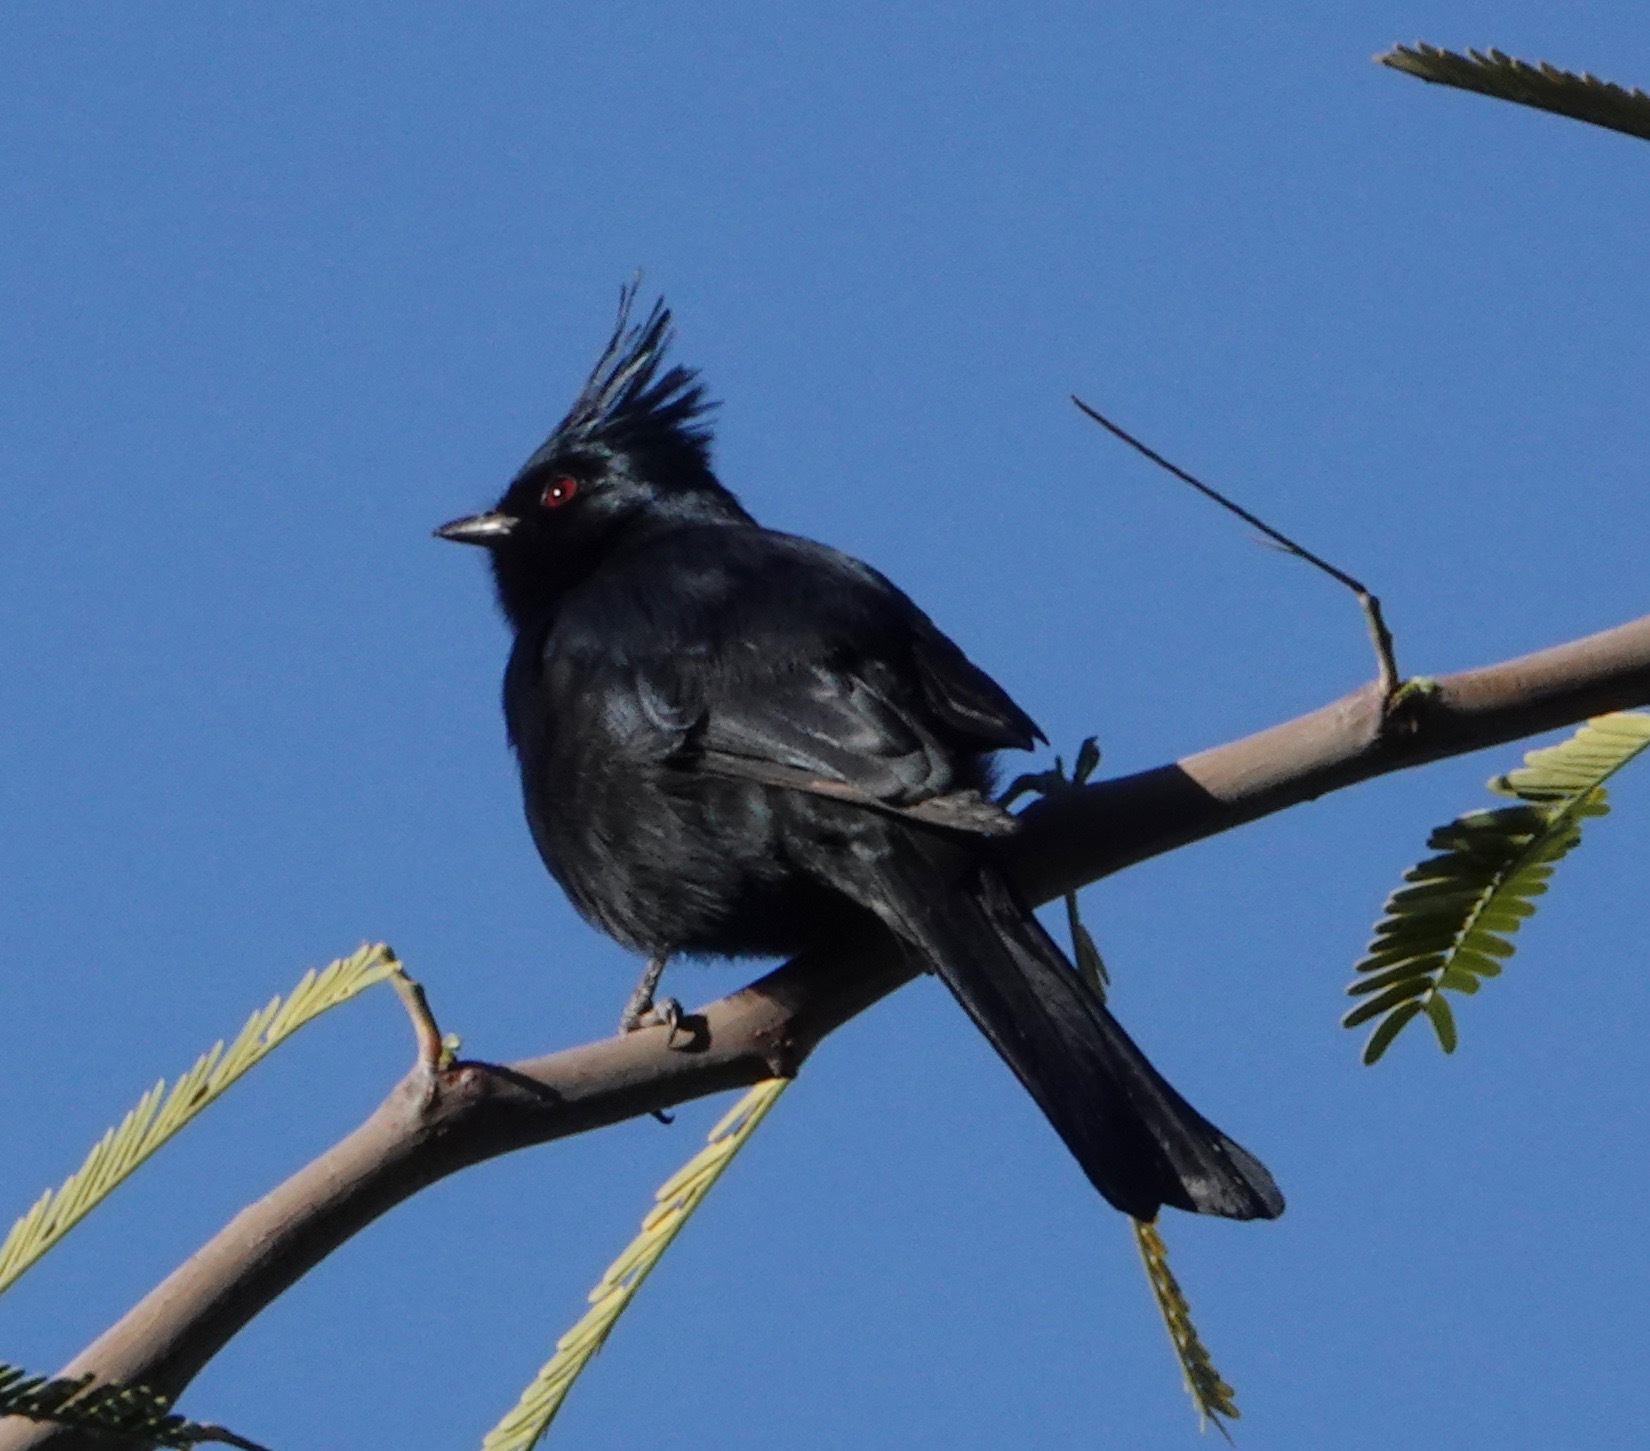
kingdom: Animalia
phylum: Chordata
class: Aves
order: Passeriformes
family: Ptilogonatidae
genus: Phainopepla
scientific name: Phainopepla nitens
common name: Phainopepla
